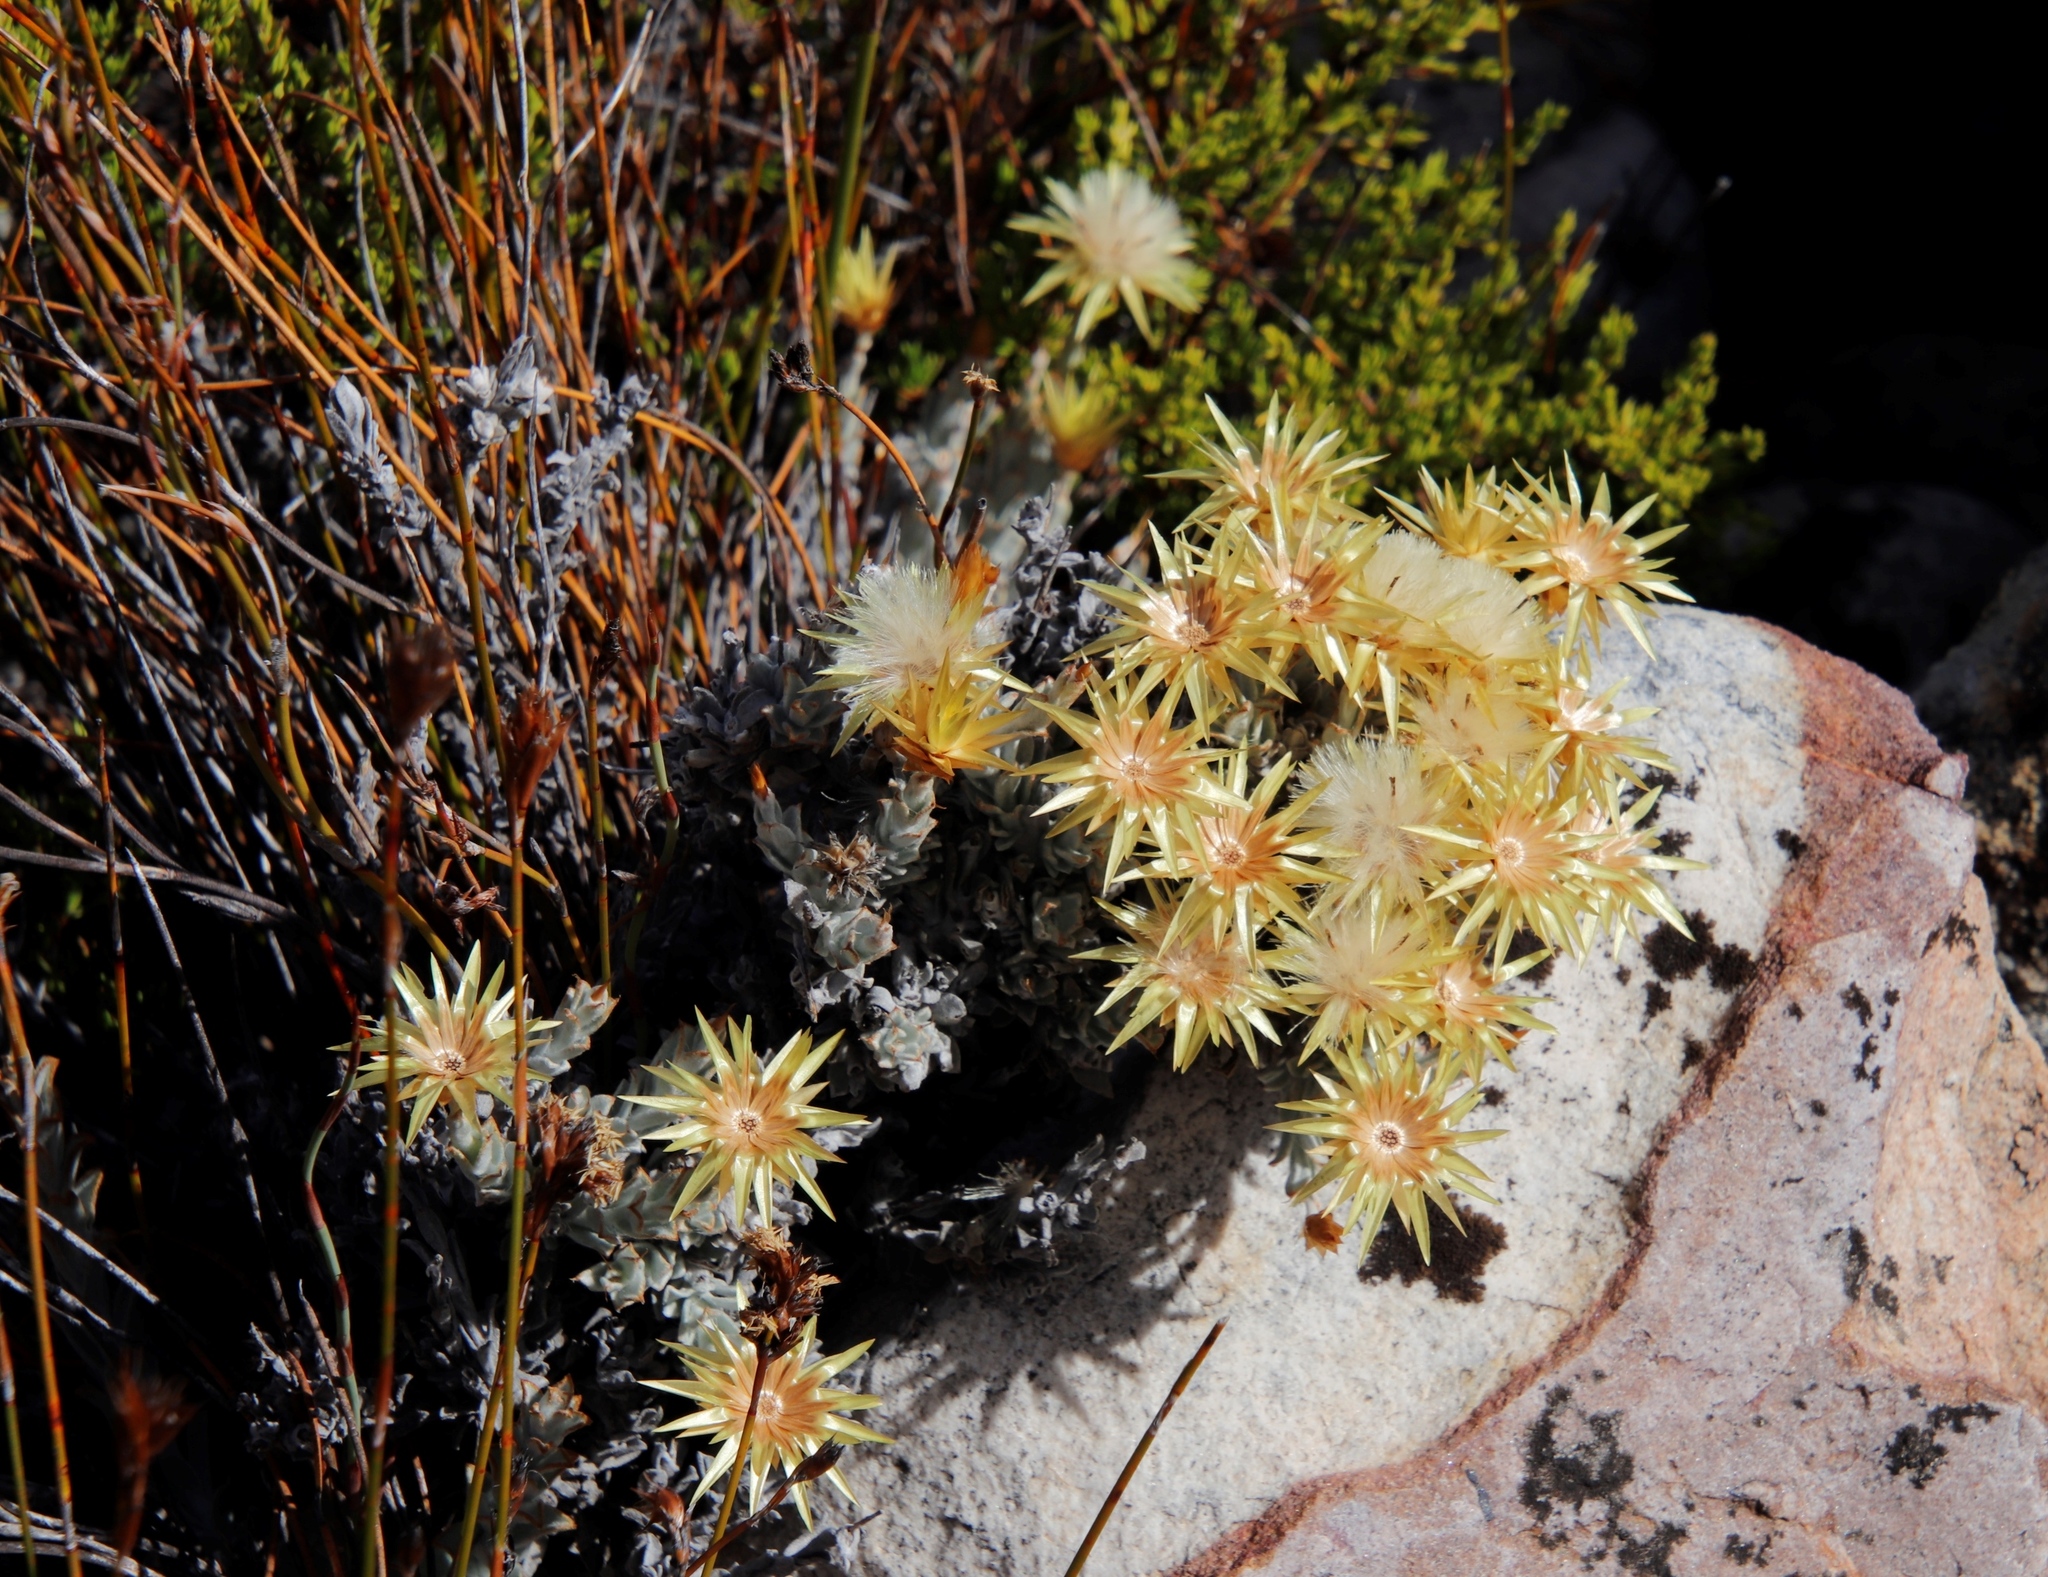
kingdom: Plantae
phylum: Tracheophyta
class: Magnoliopsida
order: Asterales
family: Asteraceae
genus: Syncarpha
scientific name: Syncarpha flava
